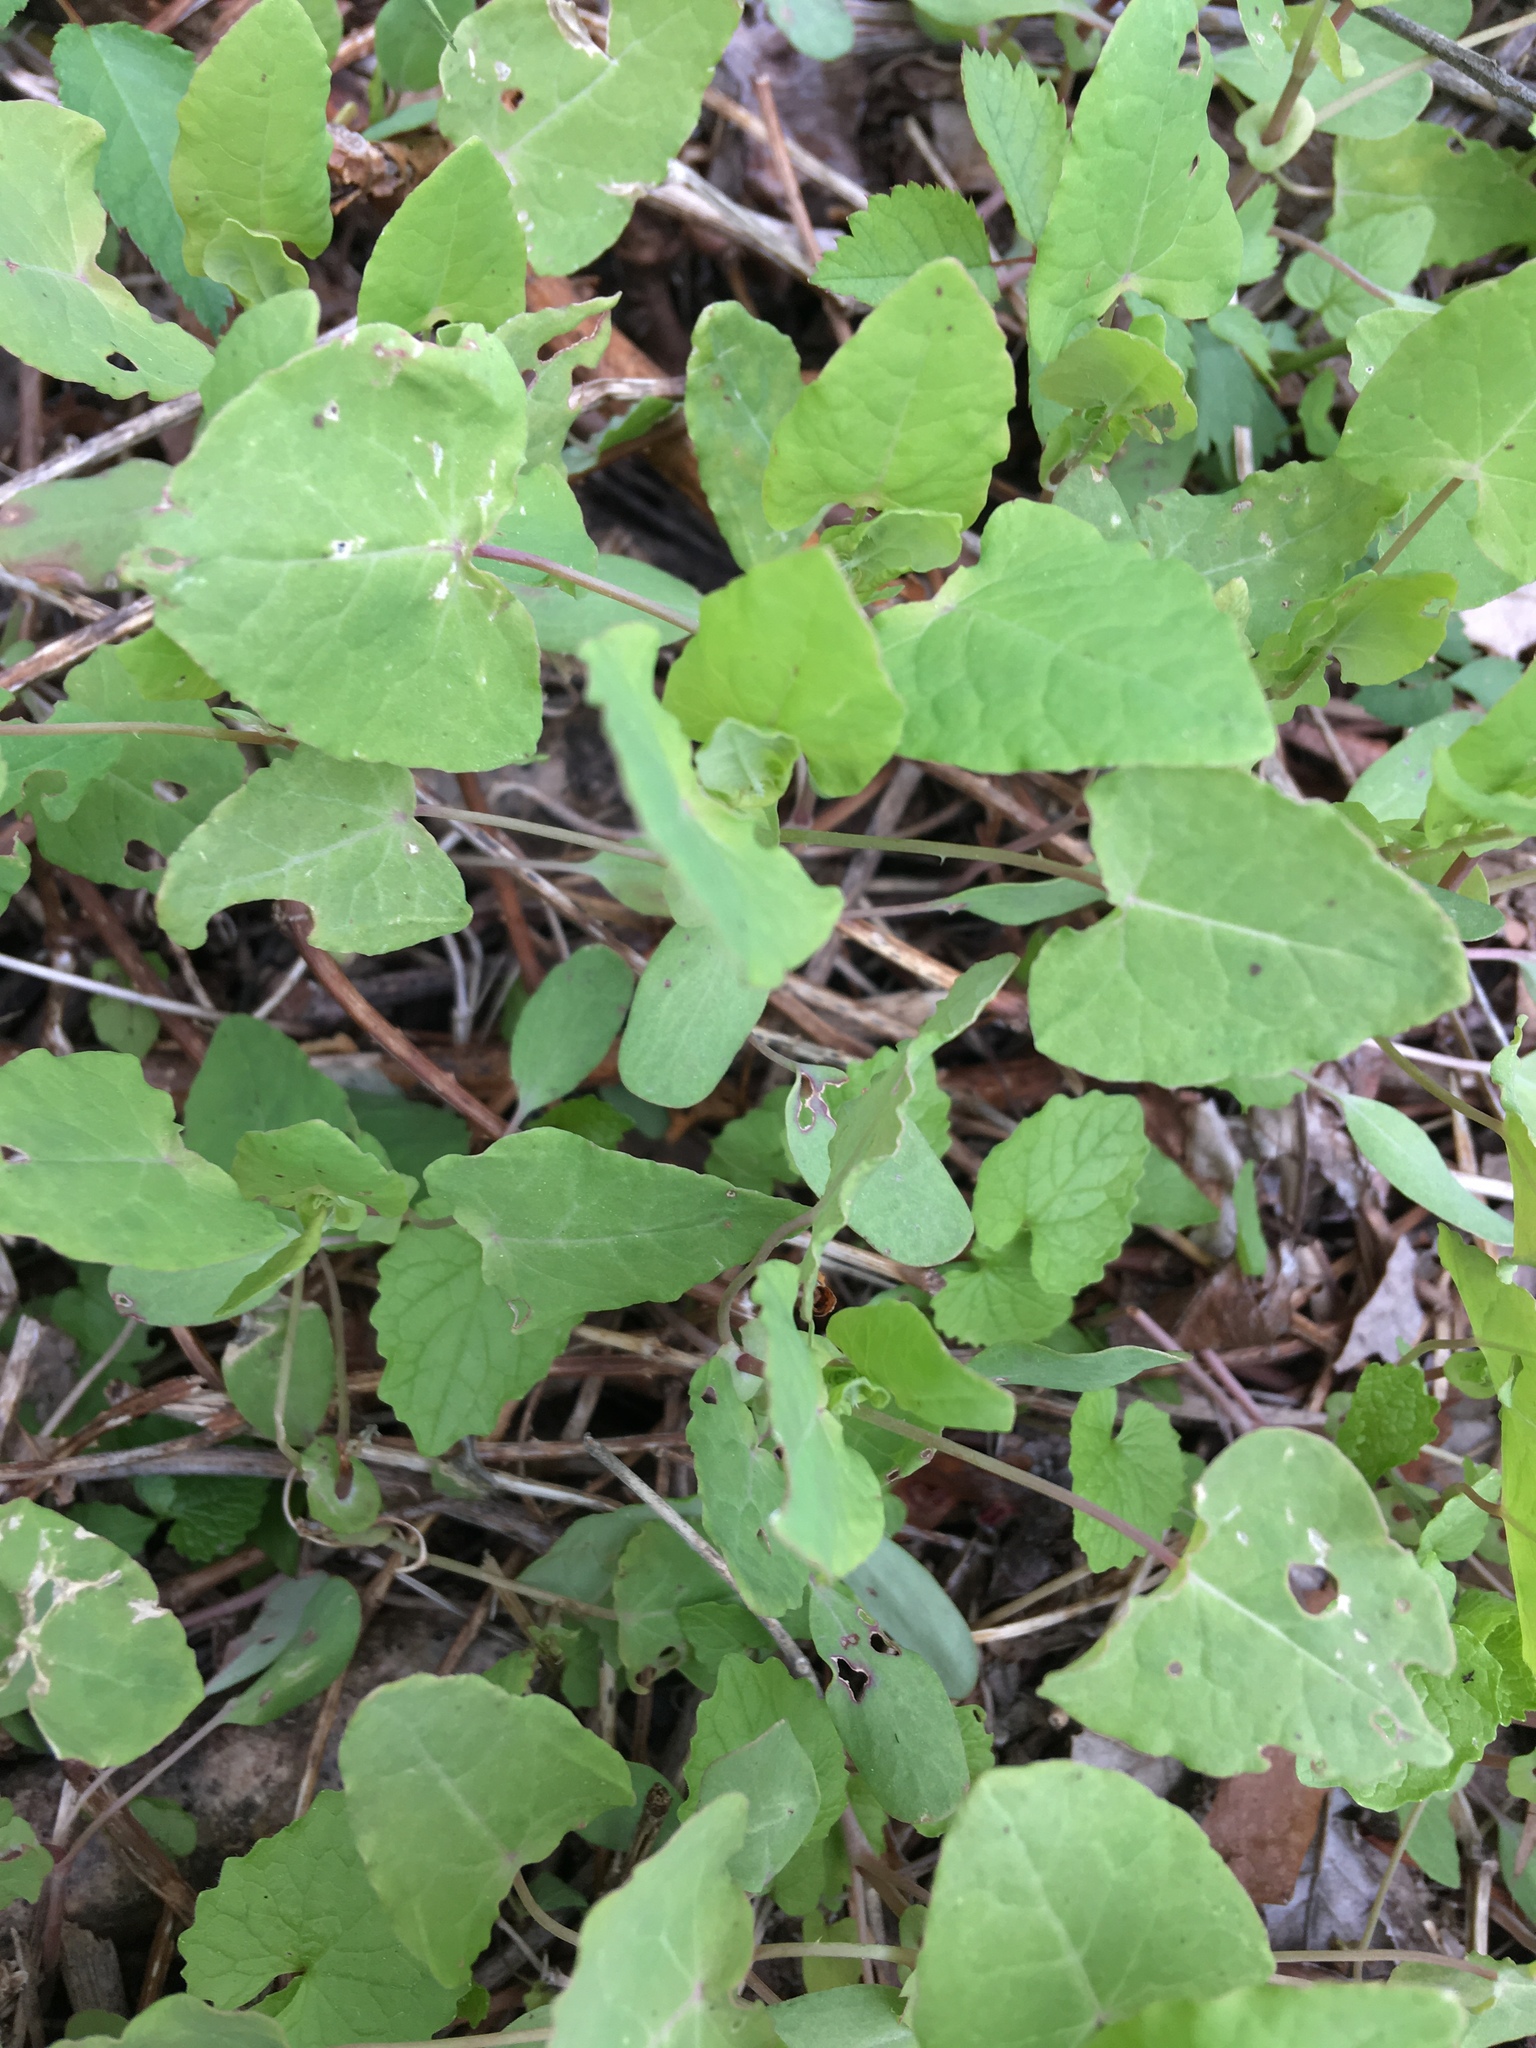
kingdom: Plantae
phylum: Tracheophyta
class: Magnoliopsida
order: Caryophyllales
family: Polygonaceae
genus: Persicaria
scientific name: Persicaria perfoliata
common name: Asiatic tearthumb
